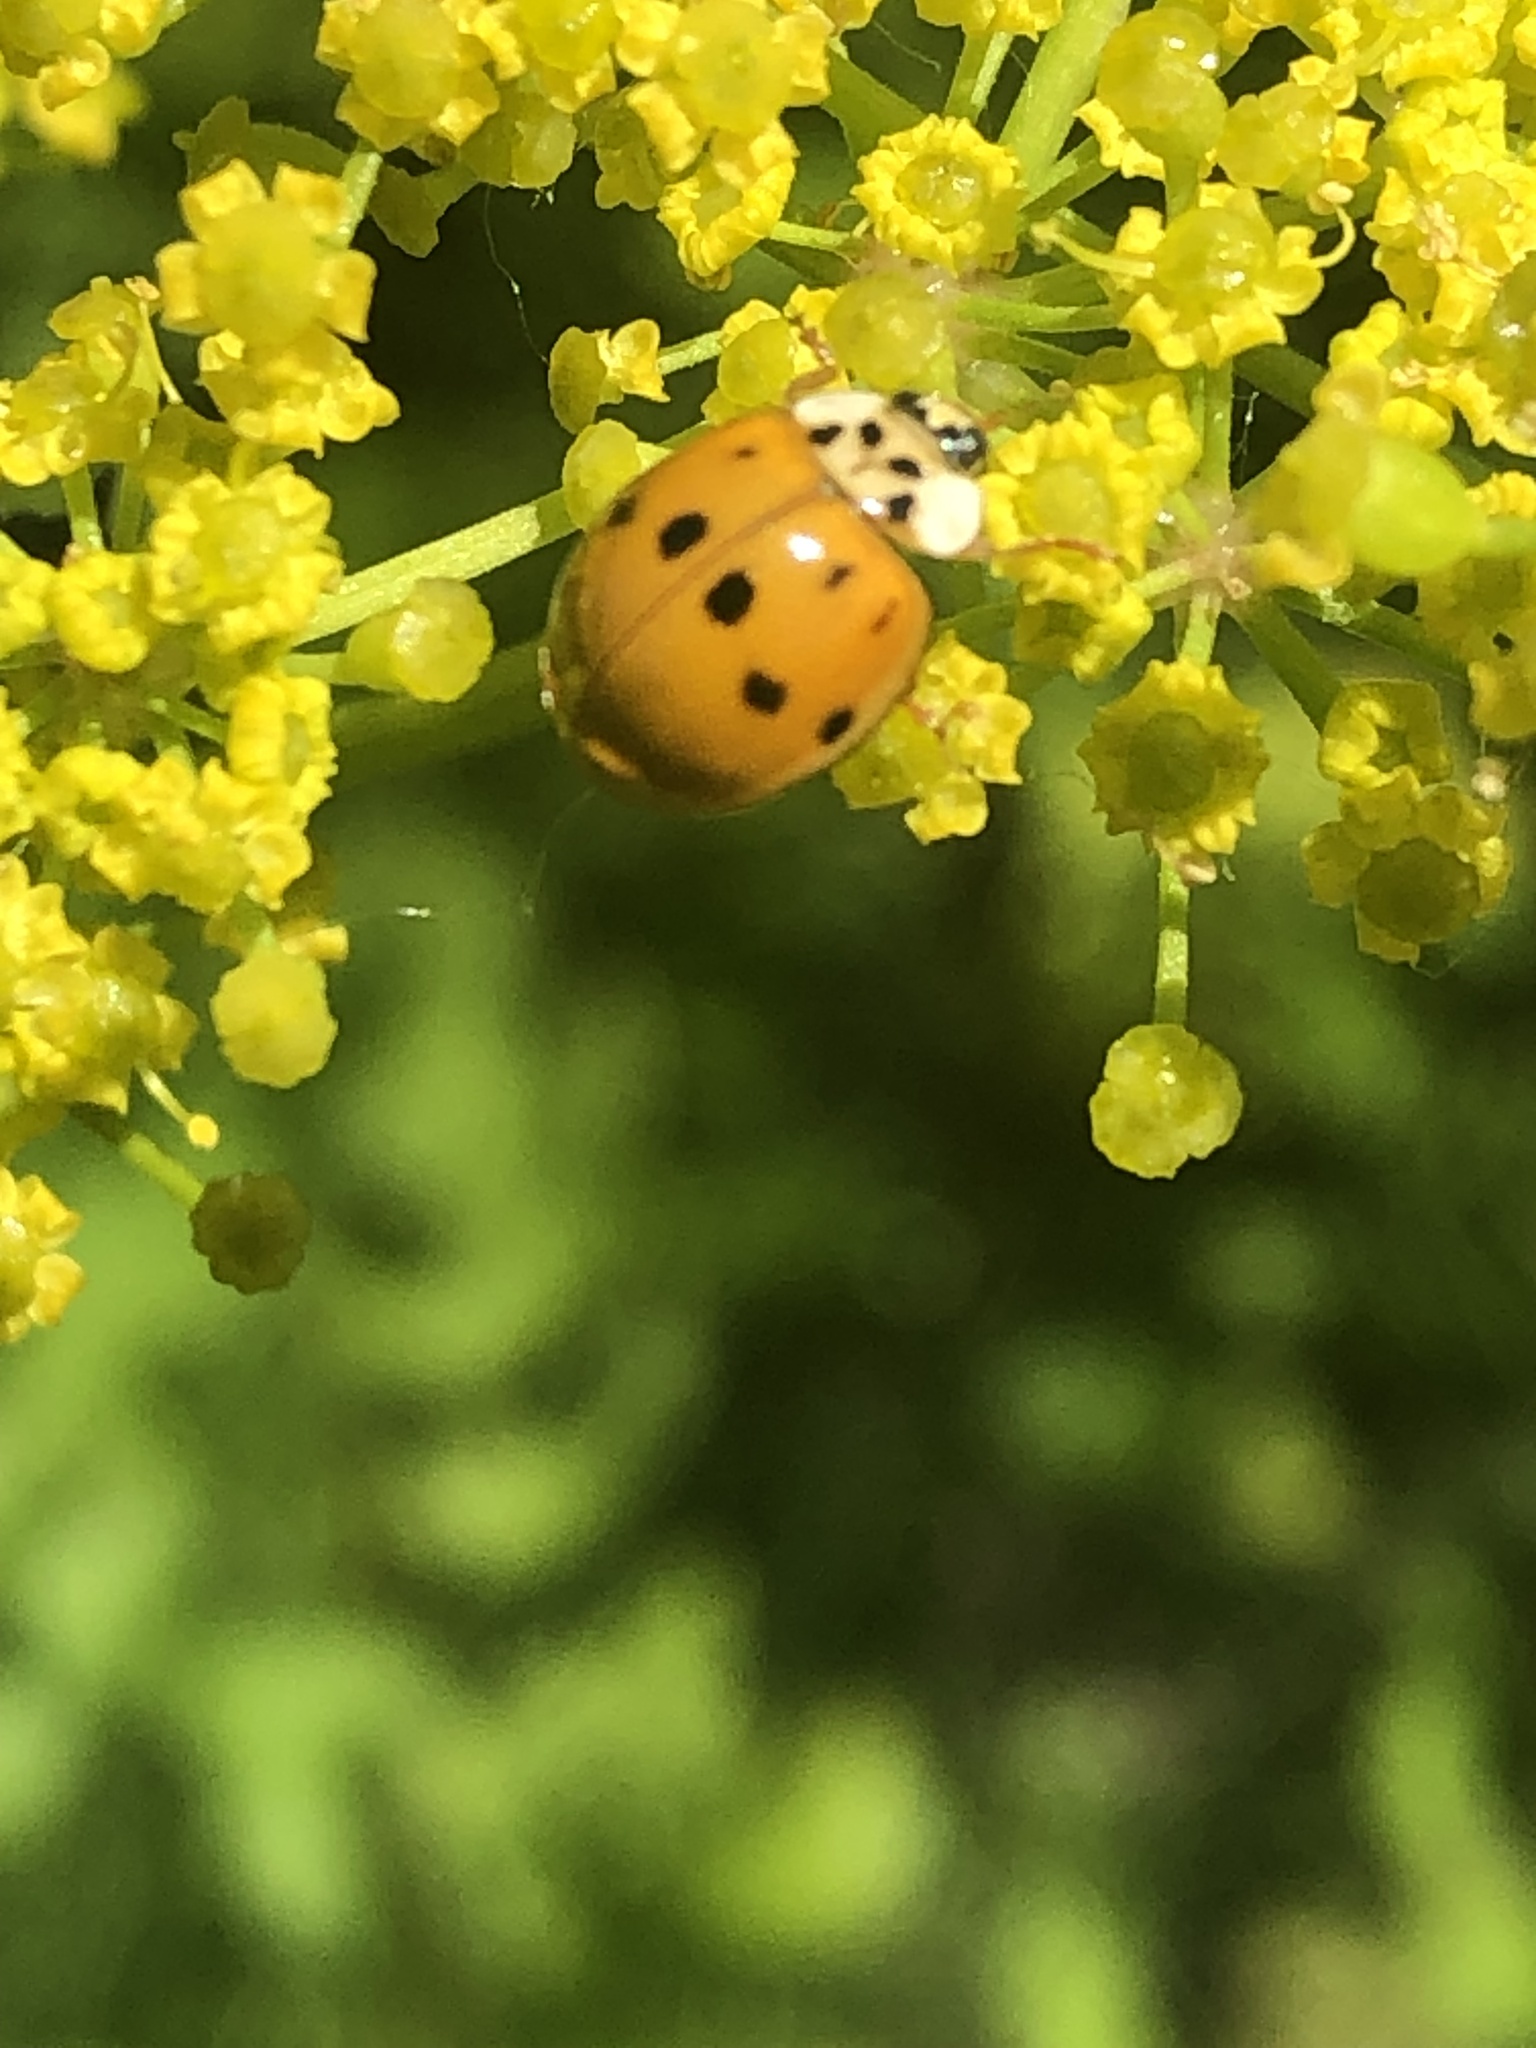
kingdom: Animalia
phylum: Arthropoda
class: Insecta
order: Coleoptera
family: Coccinellidae
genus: Harmonia
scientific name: Harmonia axyridis
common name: Harlequin ladybird
